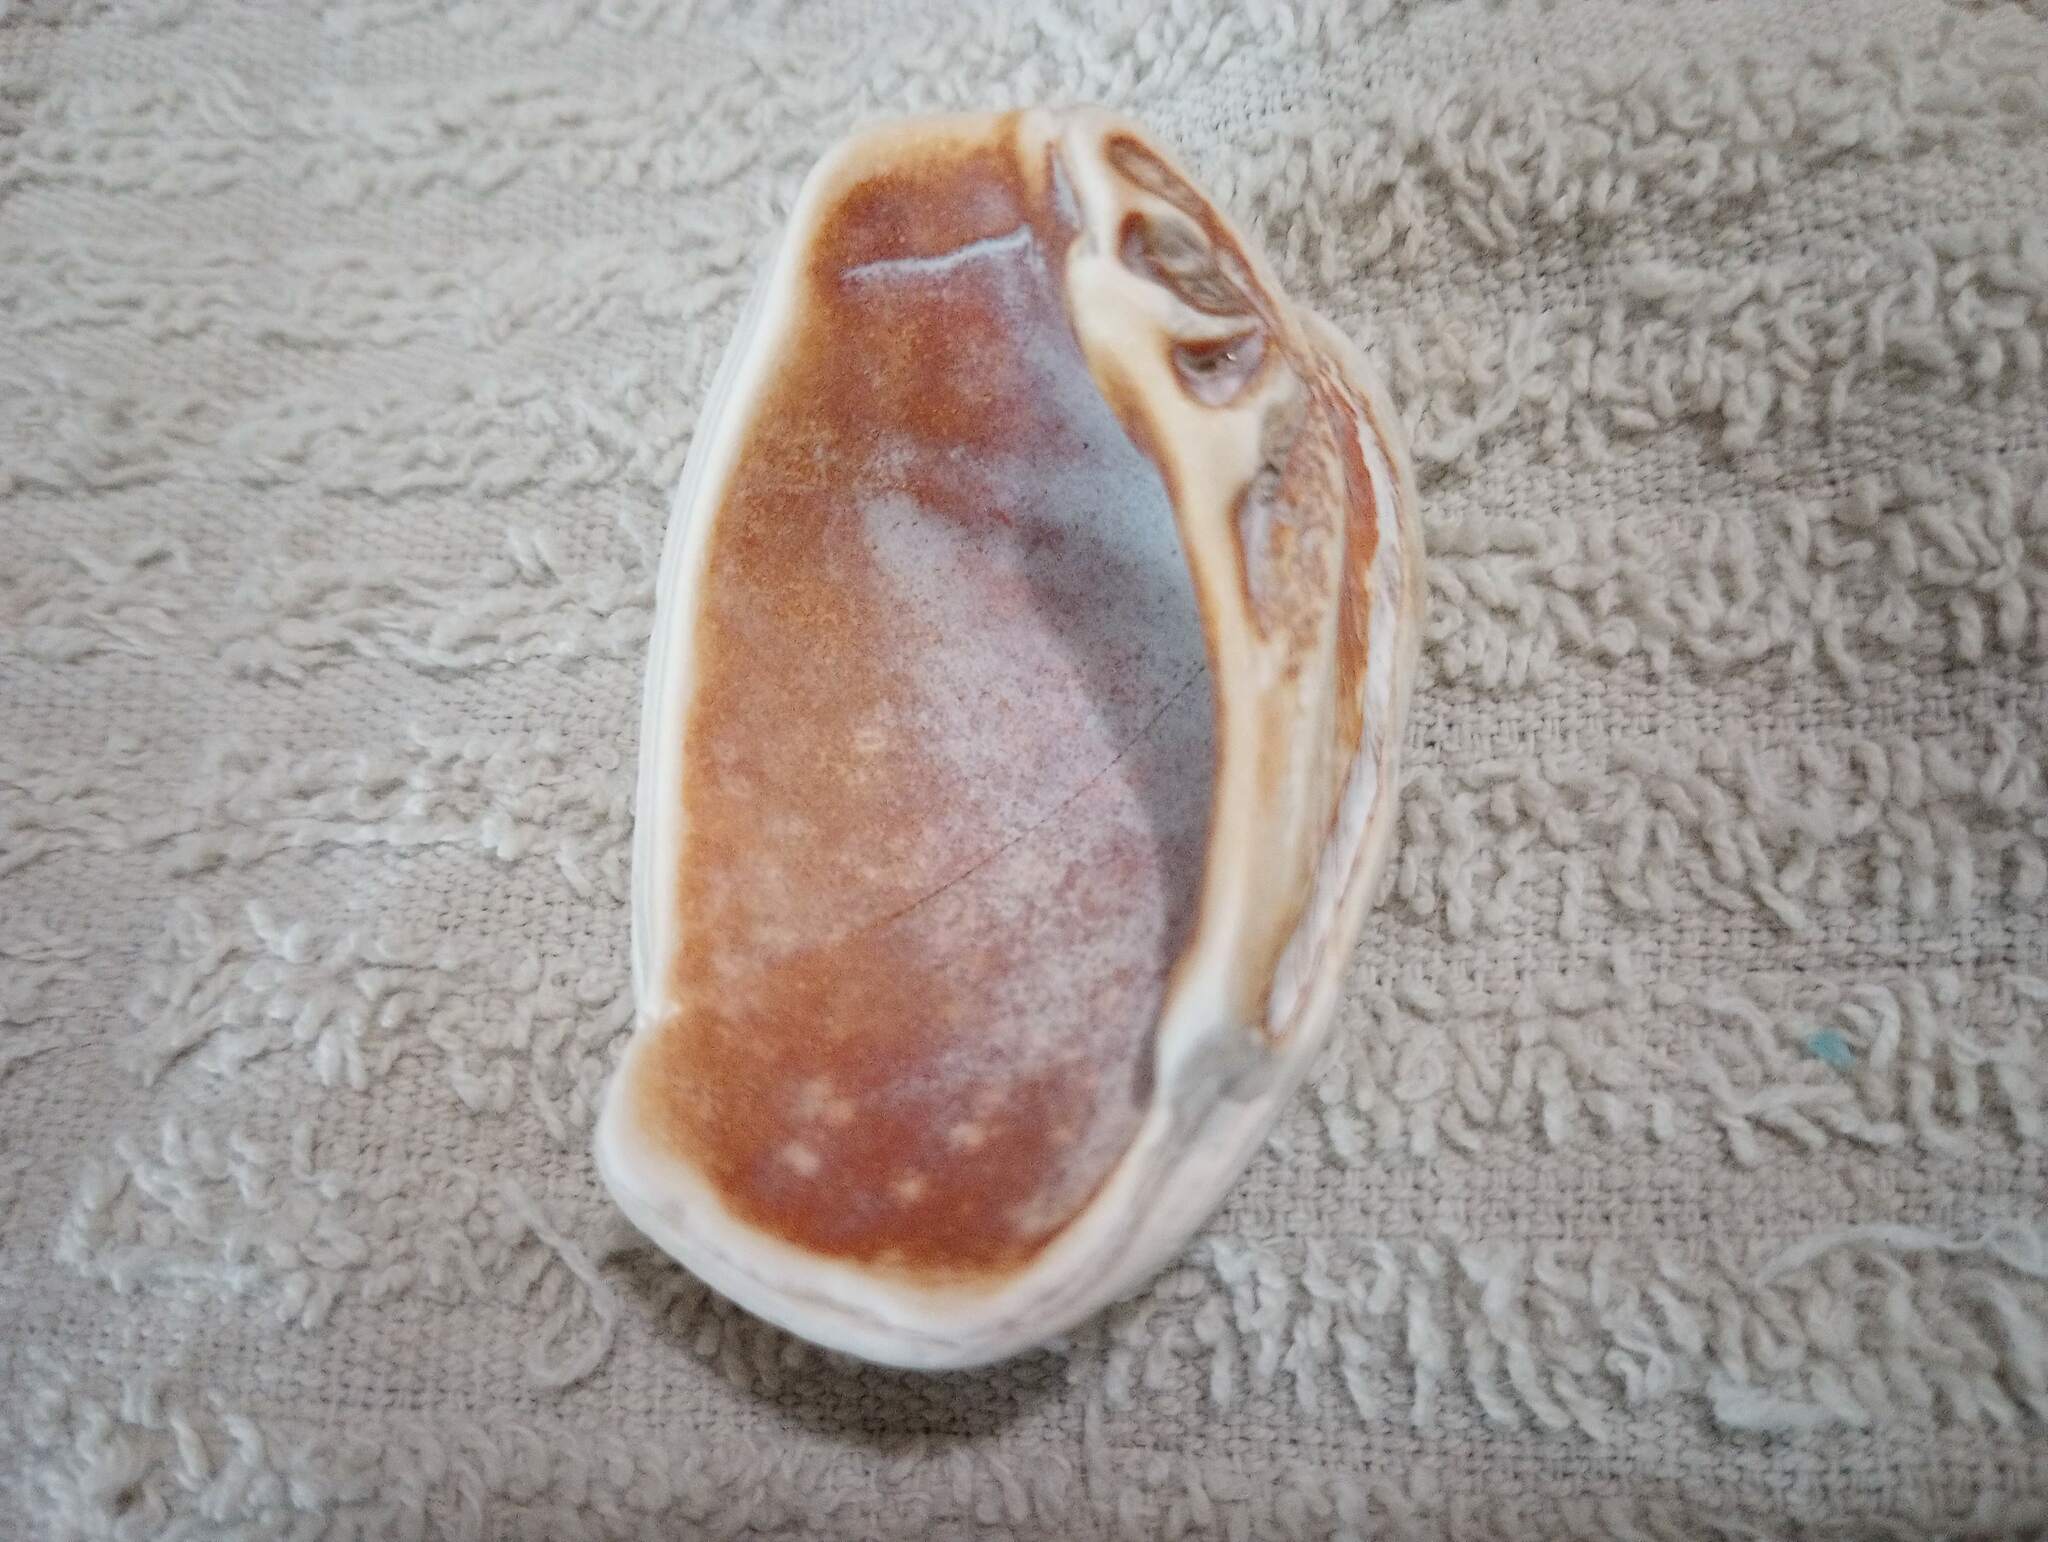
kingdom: Animalia
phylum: Mollusca
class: Bivalvia
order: Venerida
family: Veneridae
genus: Mercenaria
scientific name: Mercenaria
